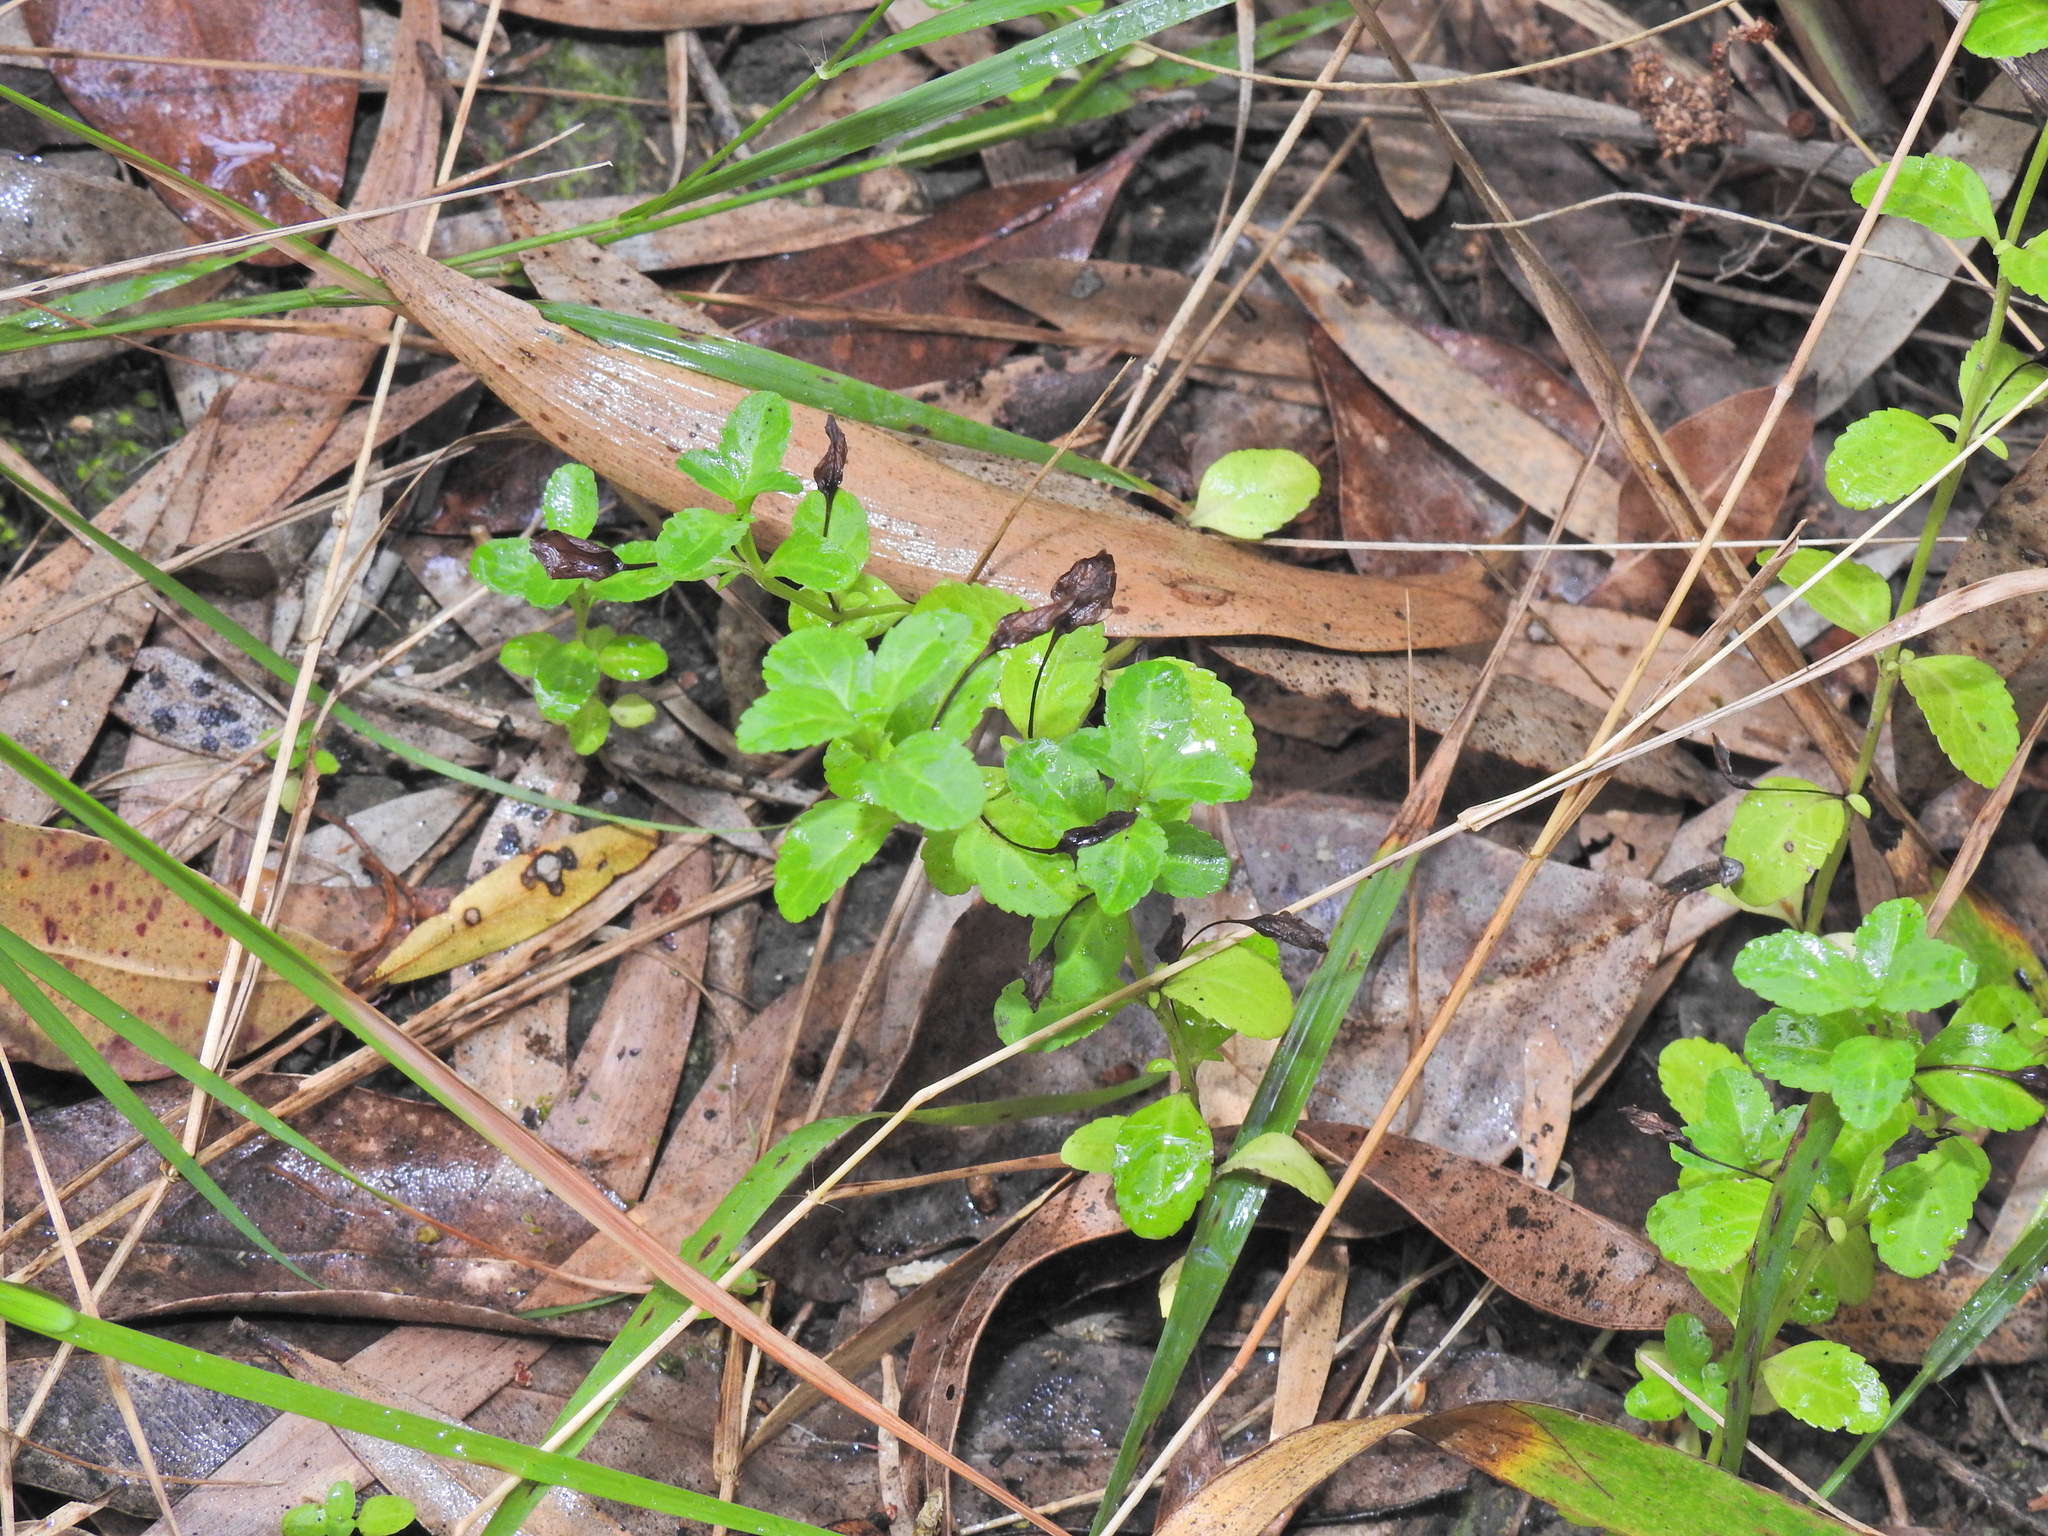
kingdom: Plantae
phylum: Tracheophyta
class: Magnoliopsida
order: Lamiales
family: Plantaginaceae
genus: Mecardonia
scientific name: Mecardonia procumbens
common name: Baby jump-up
